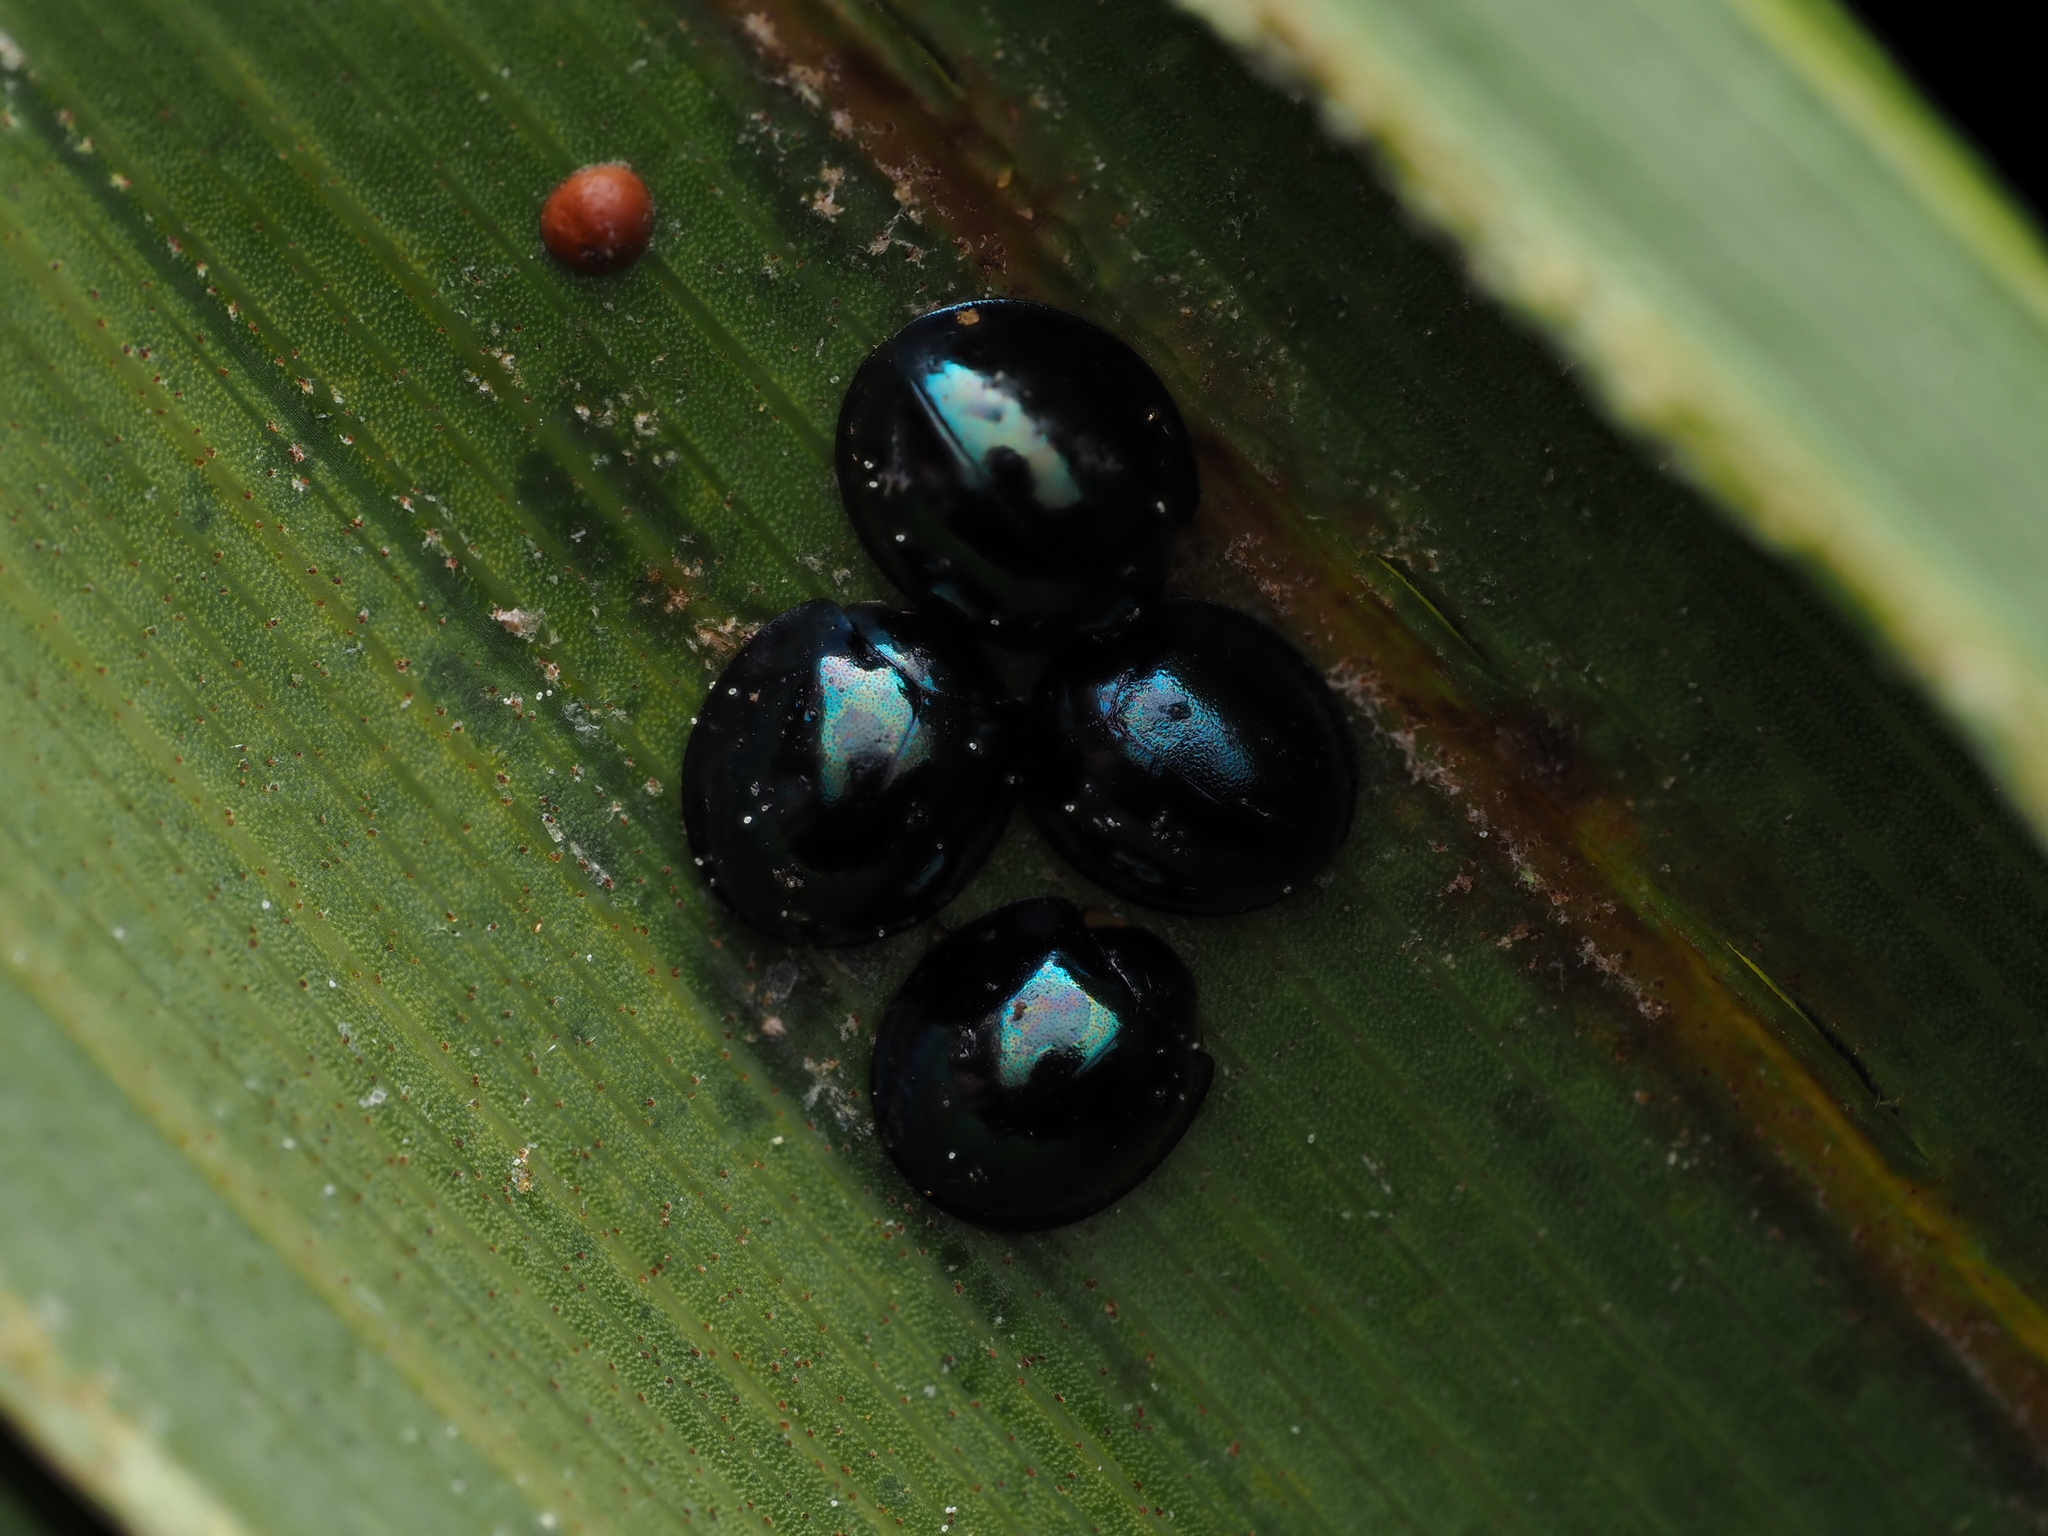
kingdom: Animalia
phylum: Arthropoda
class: Insecta
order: Coleoptera
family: Coccinellidae
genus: Halmus
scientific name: Halmus chalybeus
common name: Steel blue ladybird beetle
